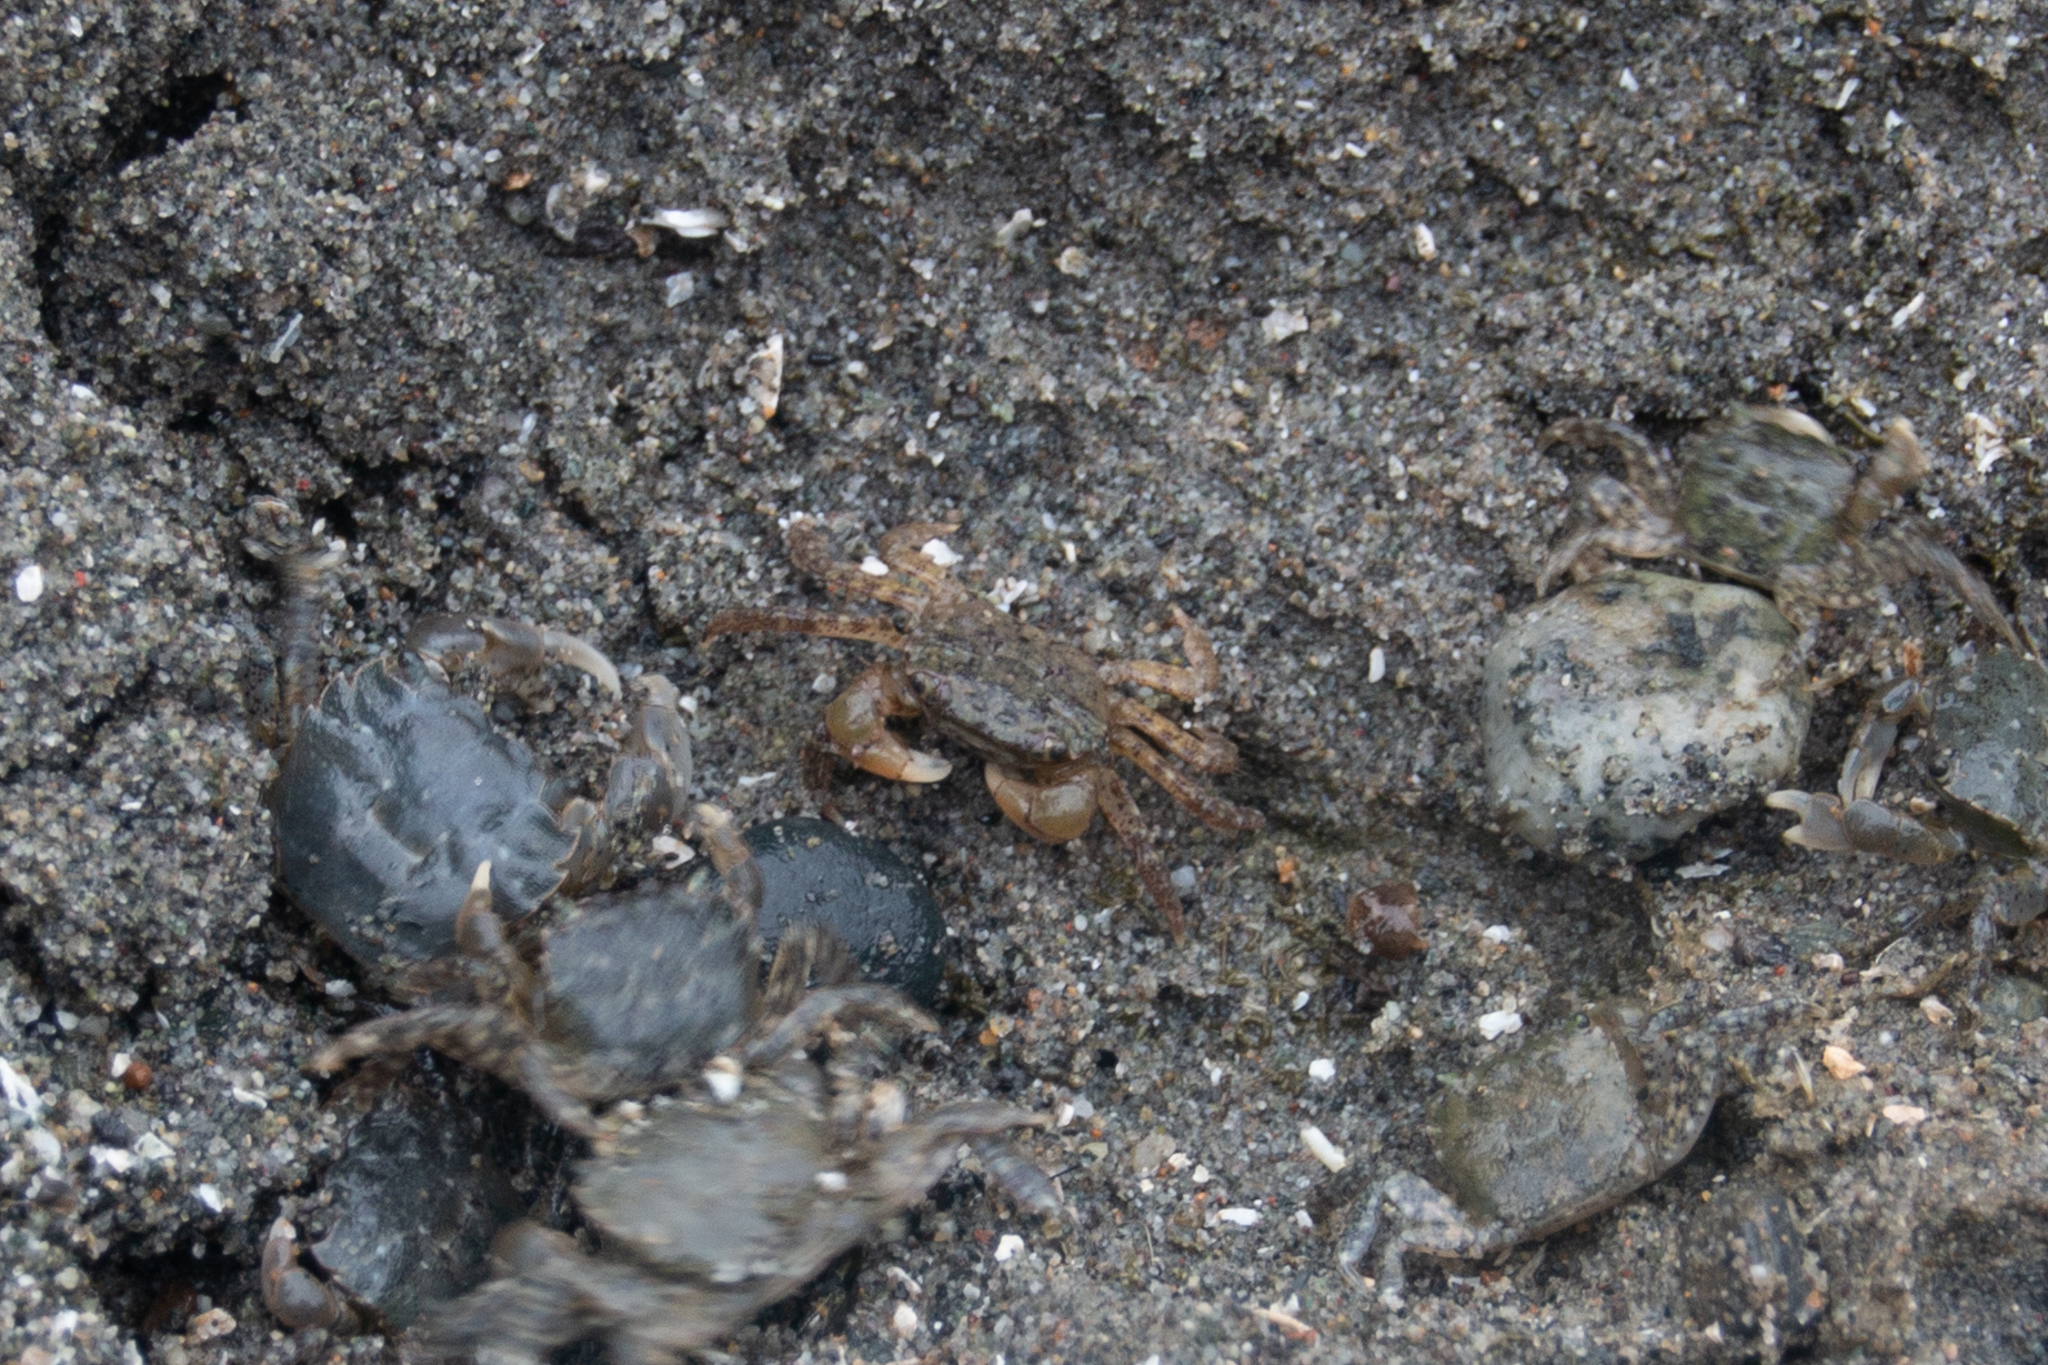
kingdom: Animalia
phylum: Arthropoda
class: Malacostraca
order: Decapoda
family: Varunidae
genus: Hemigrapsus
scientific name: Hemigrapsus oregonensis
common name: Yellow shore crab
